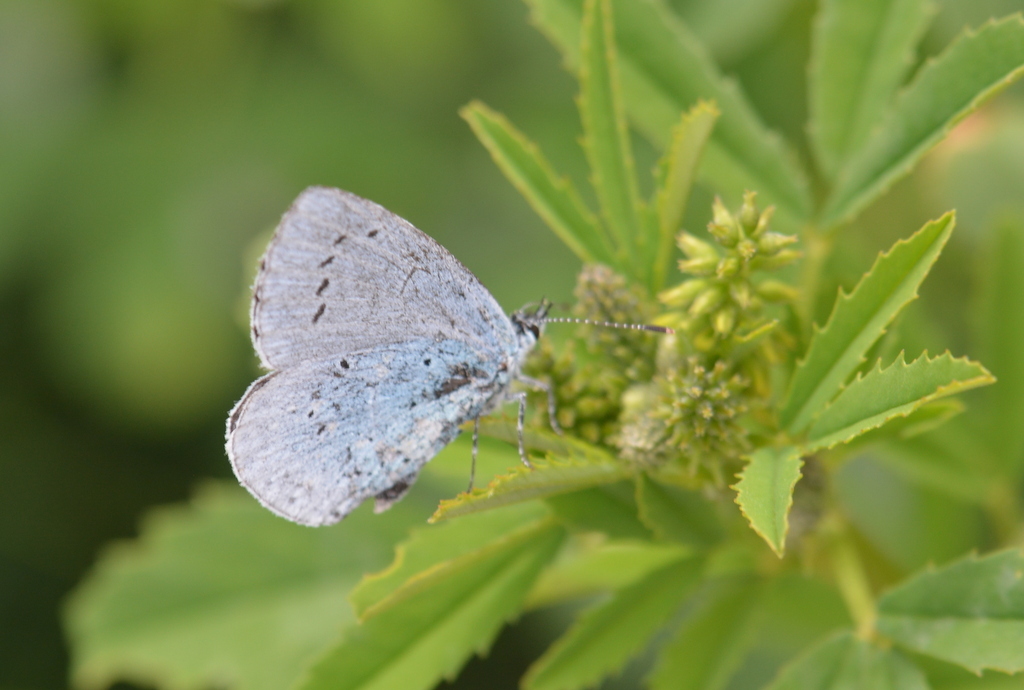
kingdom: Animalia
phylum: Arthropoda
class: Insecta
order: Lepidoptera
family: Lycaenidae
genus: Celastrina
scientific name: Celastrina argiolus
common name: Holly blue
